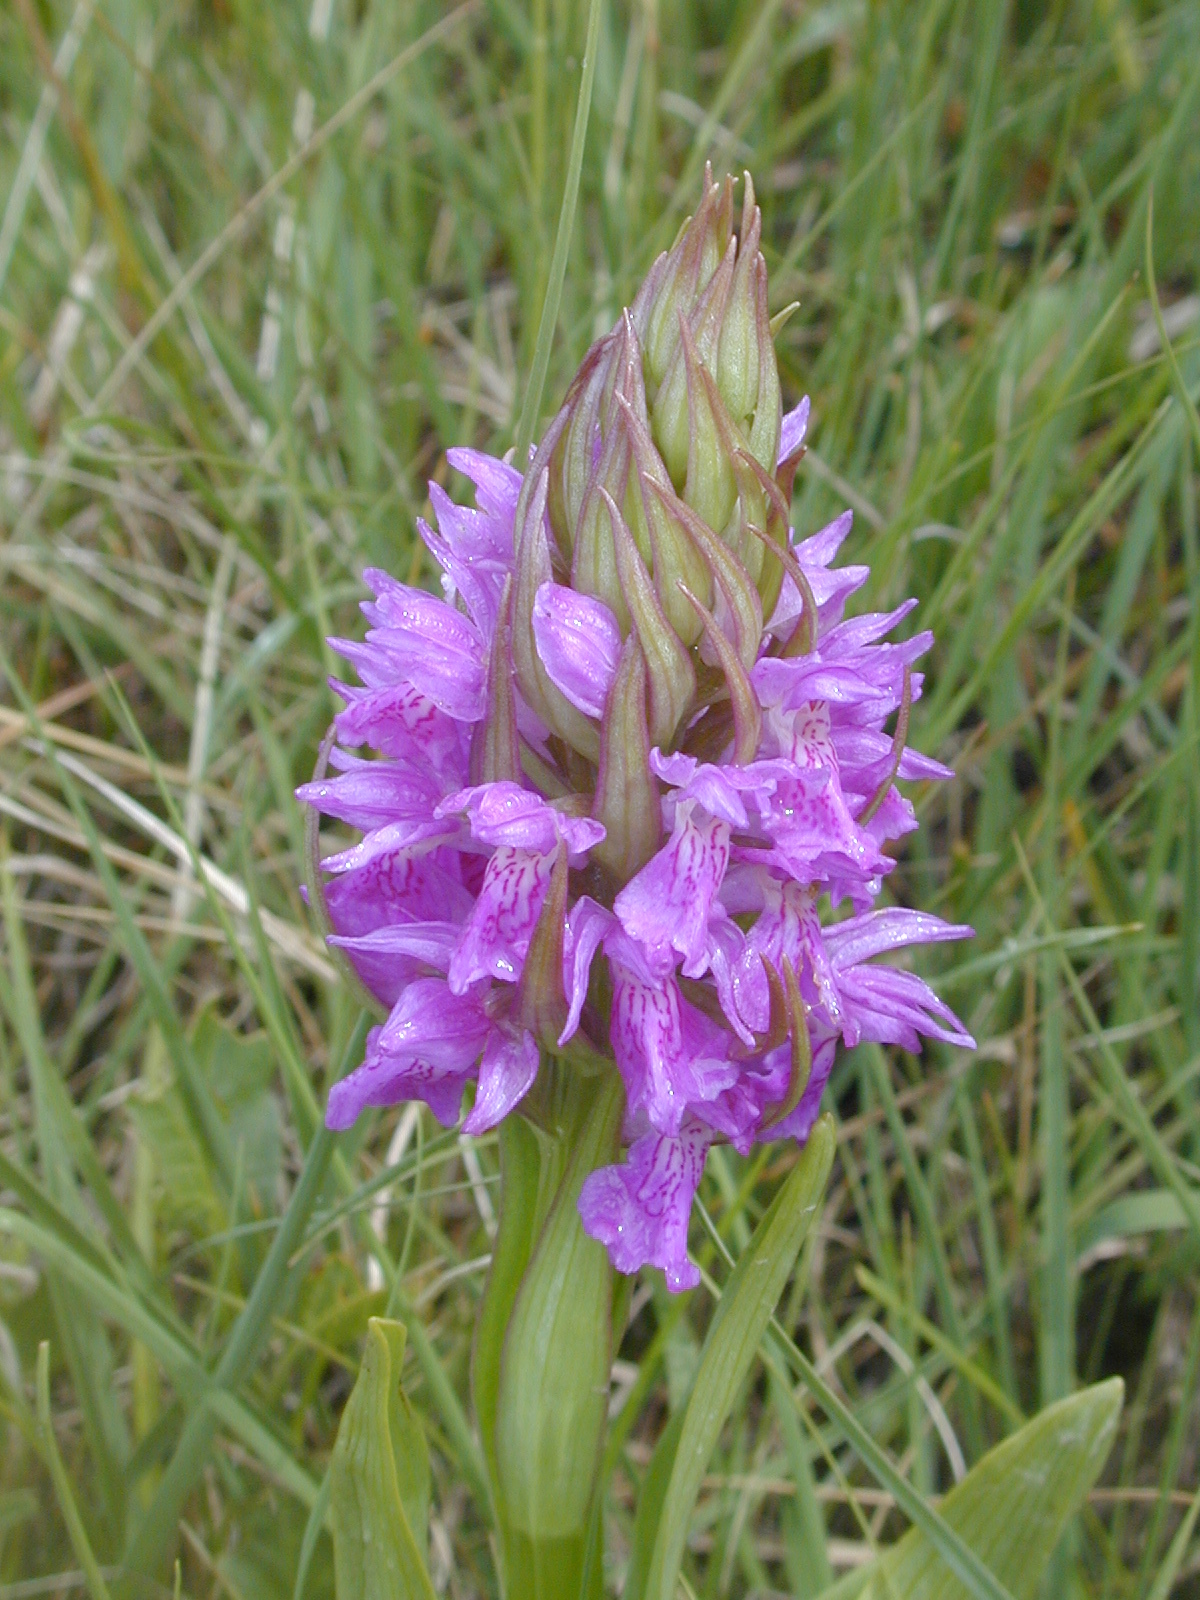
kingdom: Plantae
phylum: Tracheophyta
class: Liliopsida
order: Asparagales
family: Orchidaceae
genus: Dactylorhiza
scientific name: Dactylorhiza elata
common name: Stately dactylorhiza
